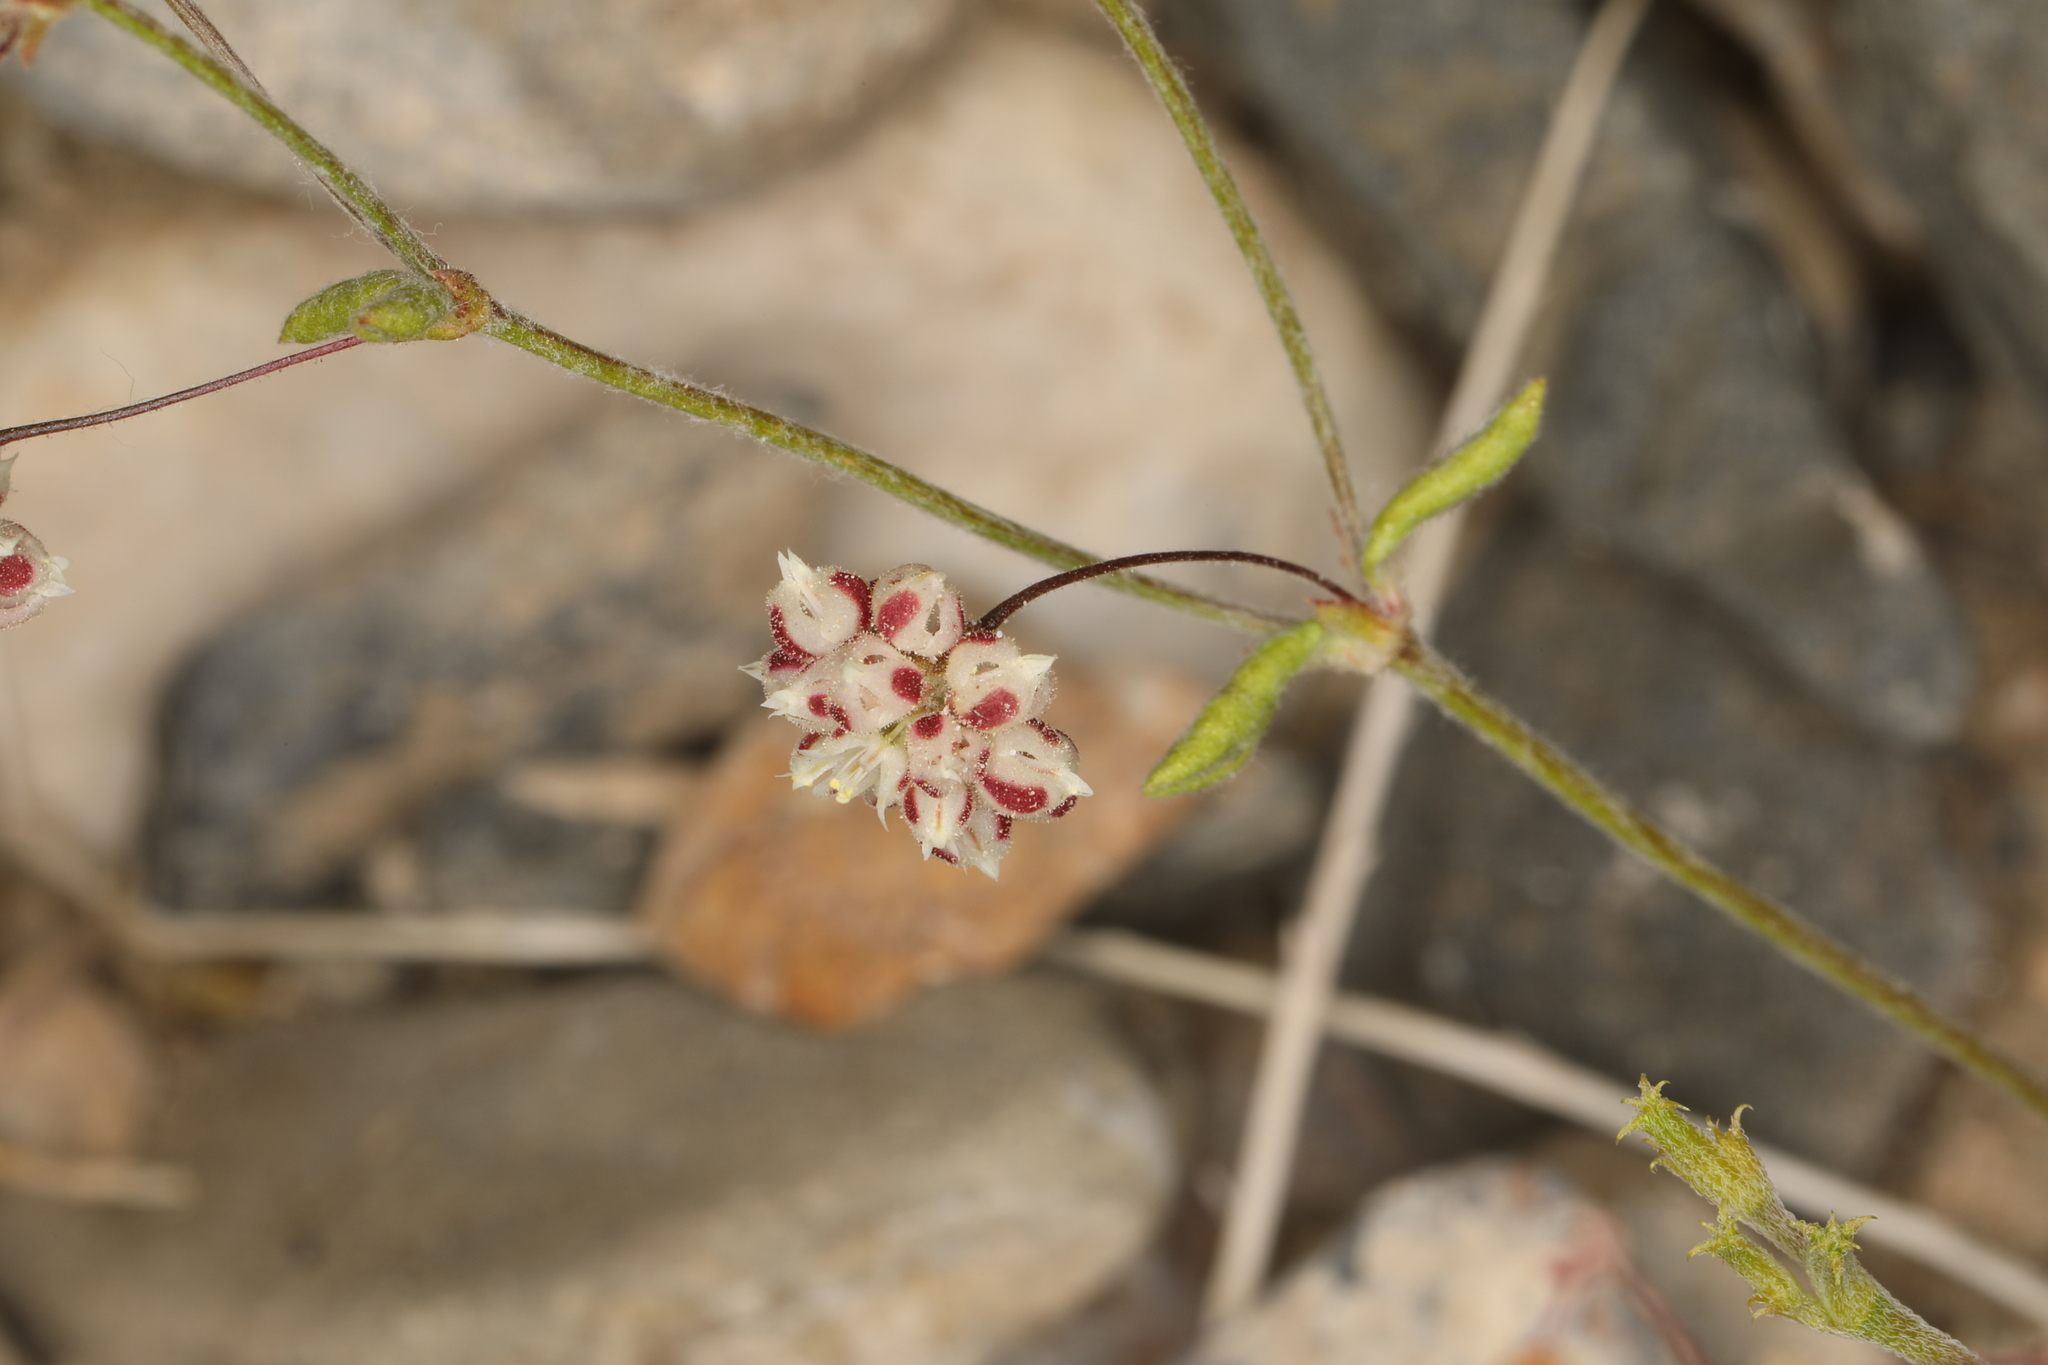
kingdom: Plantae
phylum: Tracheophyta
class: Magnoliopsida
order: Caryophyllales
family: Polygonaceae
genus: Eriogonum
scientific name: Eriogonum maculatum
